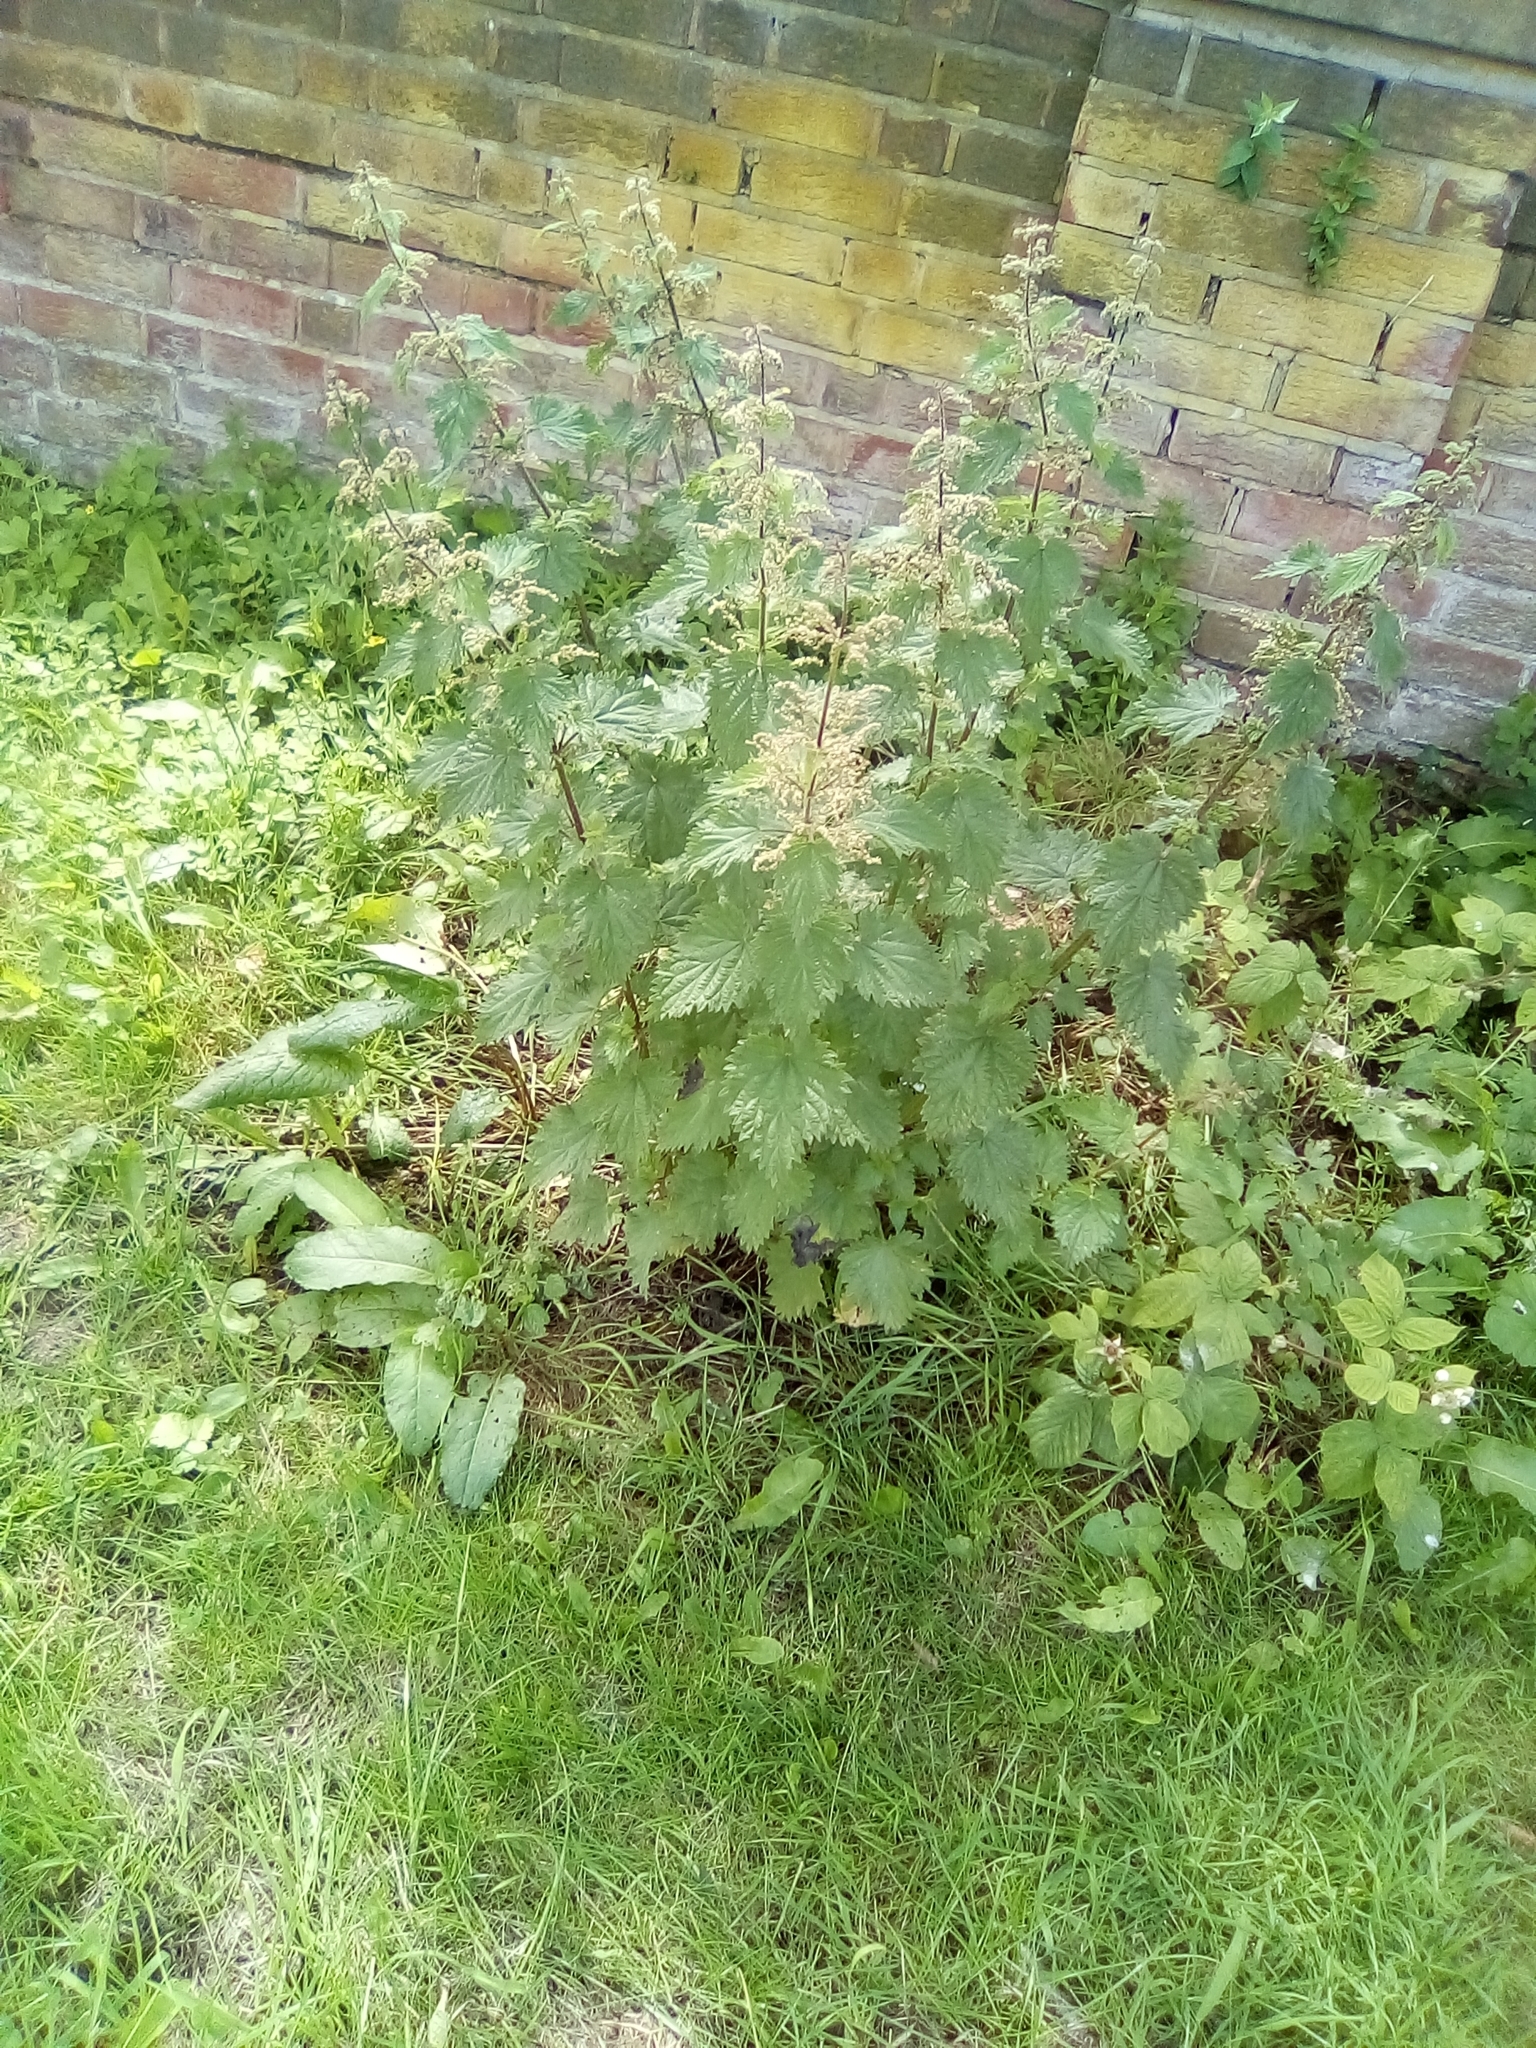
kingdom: Plantae
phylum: Tracheophyta
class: Magnoliopsida
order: Rosales
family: Urticaceae
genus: Urtica
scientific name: Urtica dioica
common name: Common nettle
